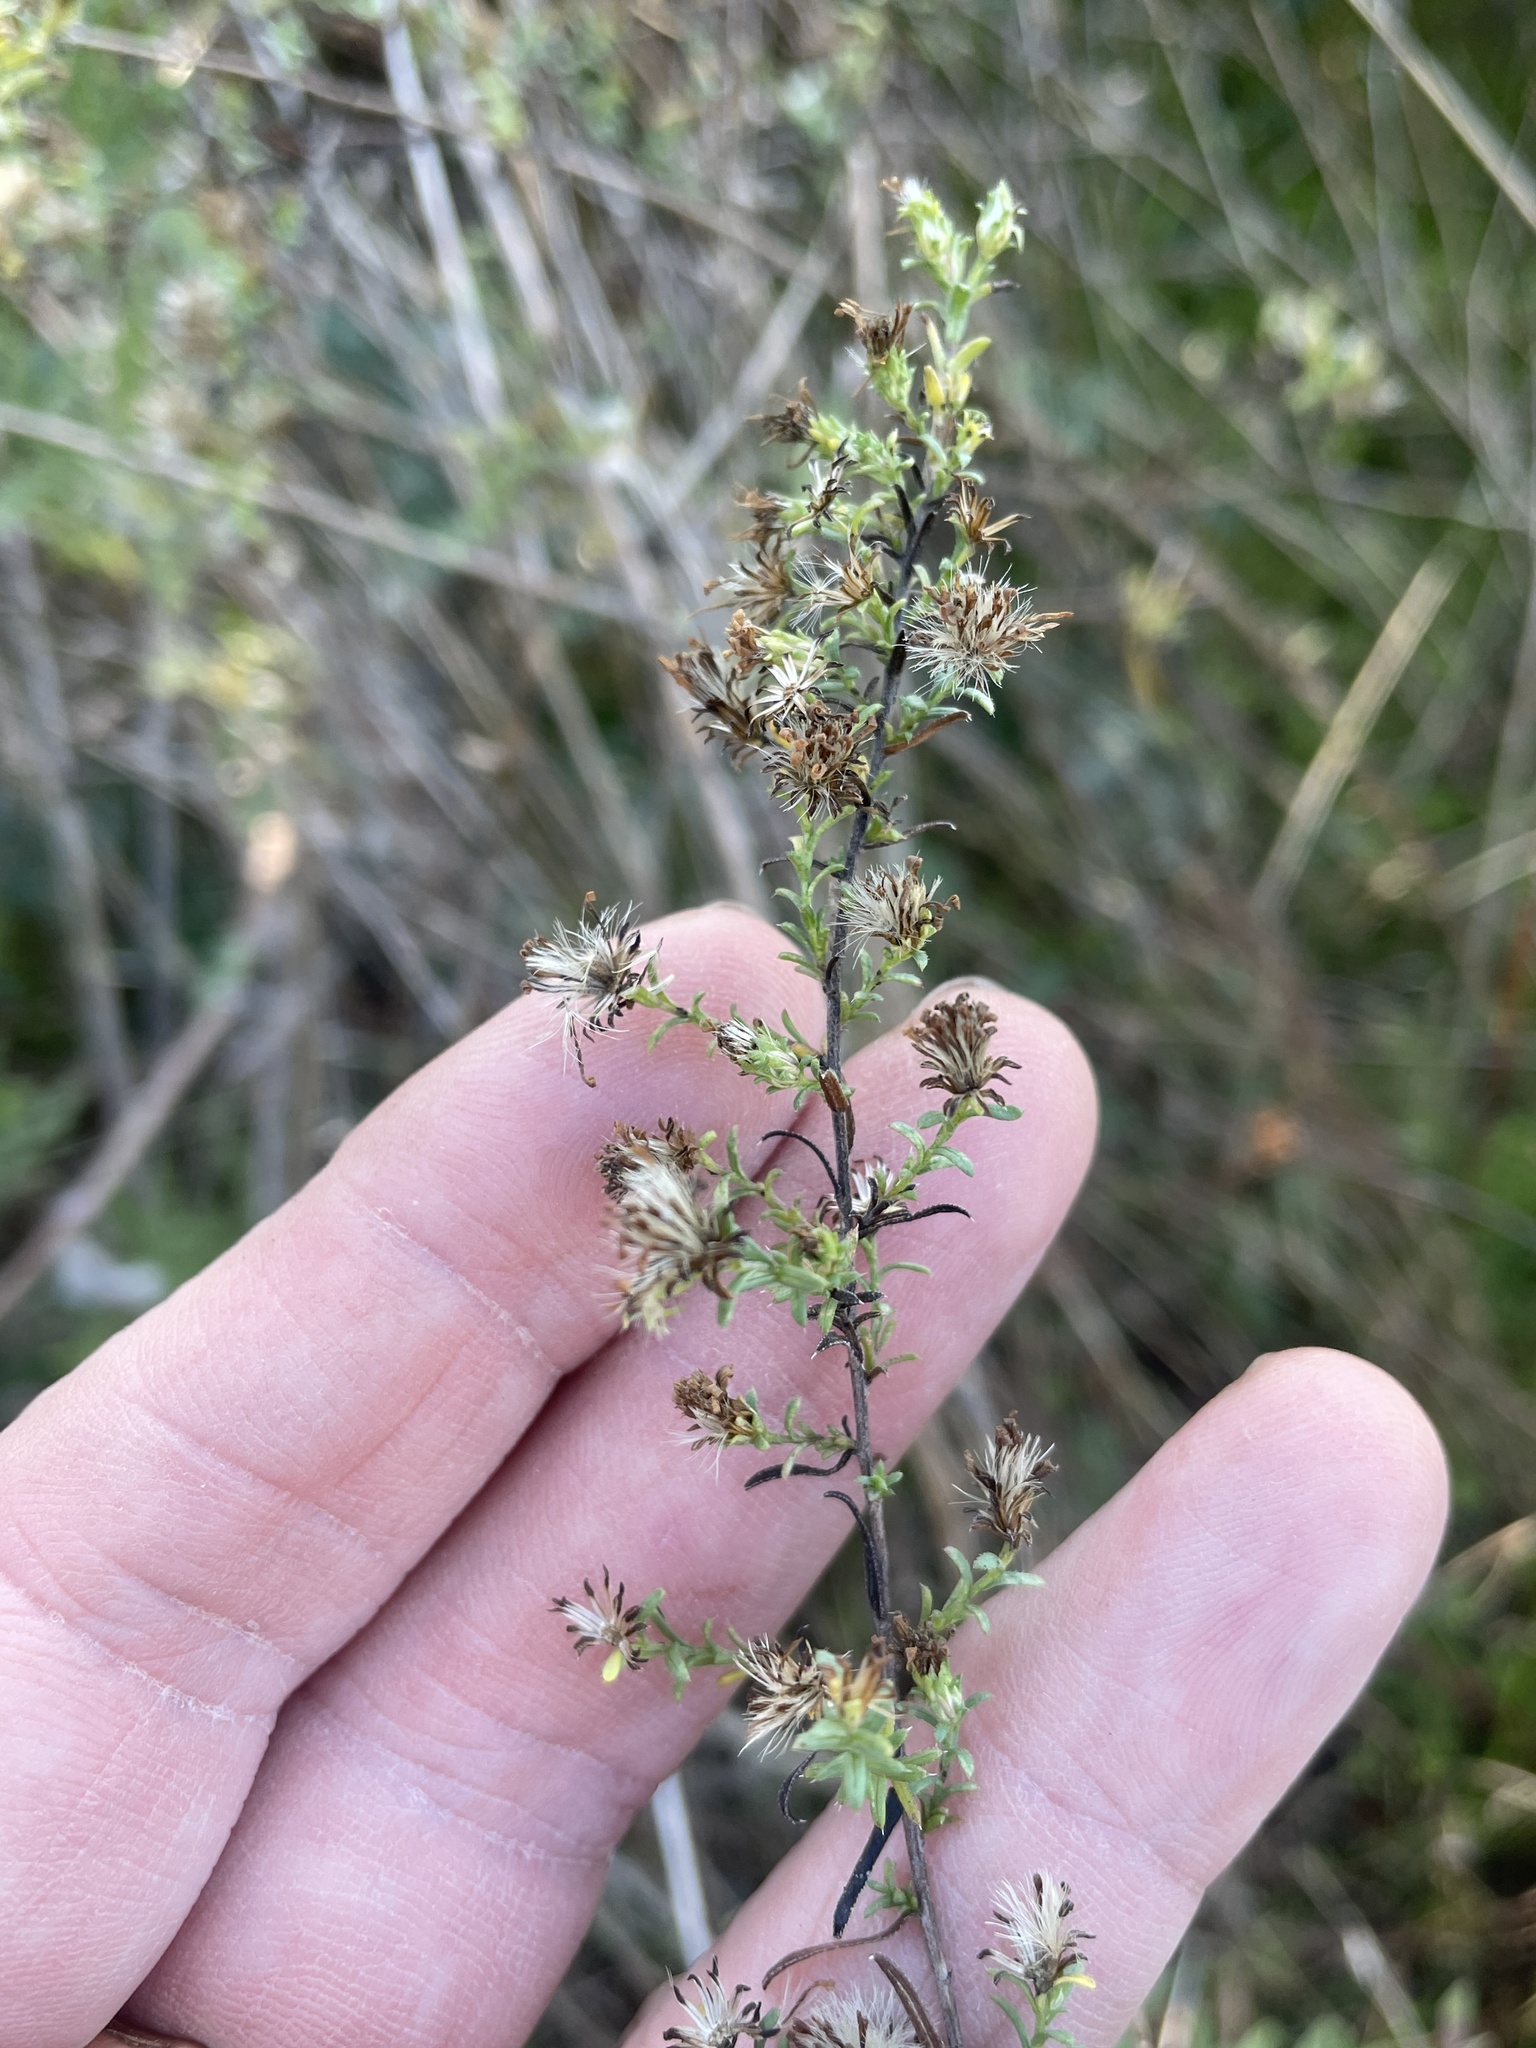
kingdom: Plantae
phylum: Tracheophyta
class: Magnoliopsida
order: Asterales
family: Asteraceae
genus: Symphyotrichum
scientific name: Symphyotrichum ericoides
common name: Heath aster
